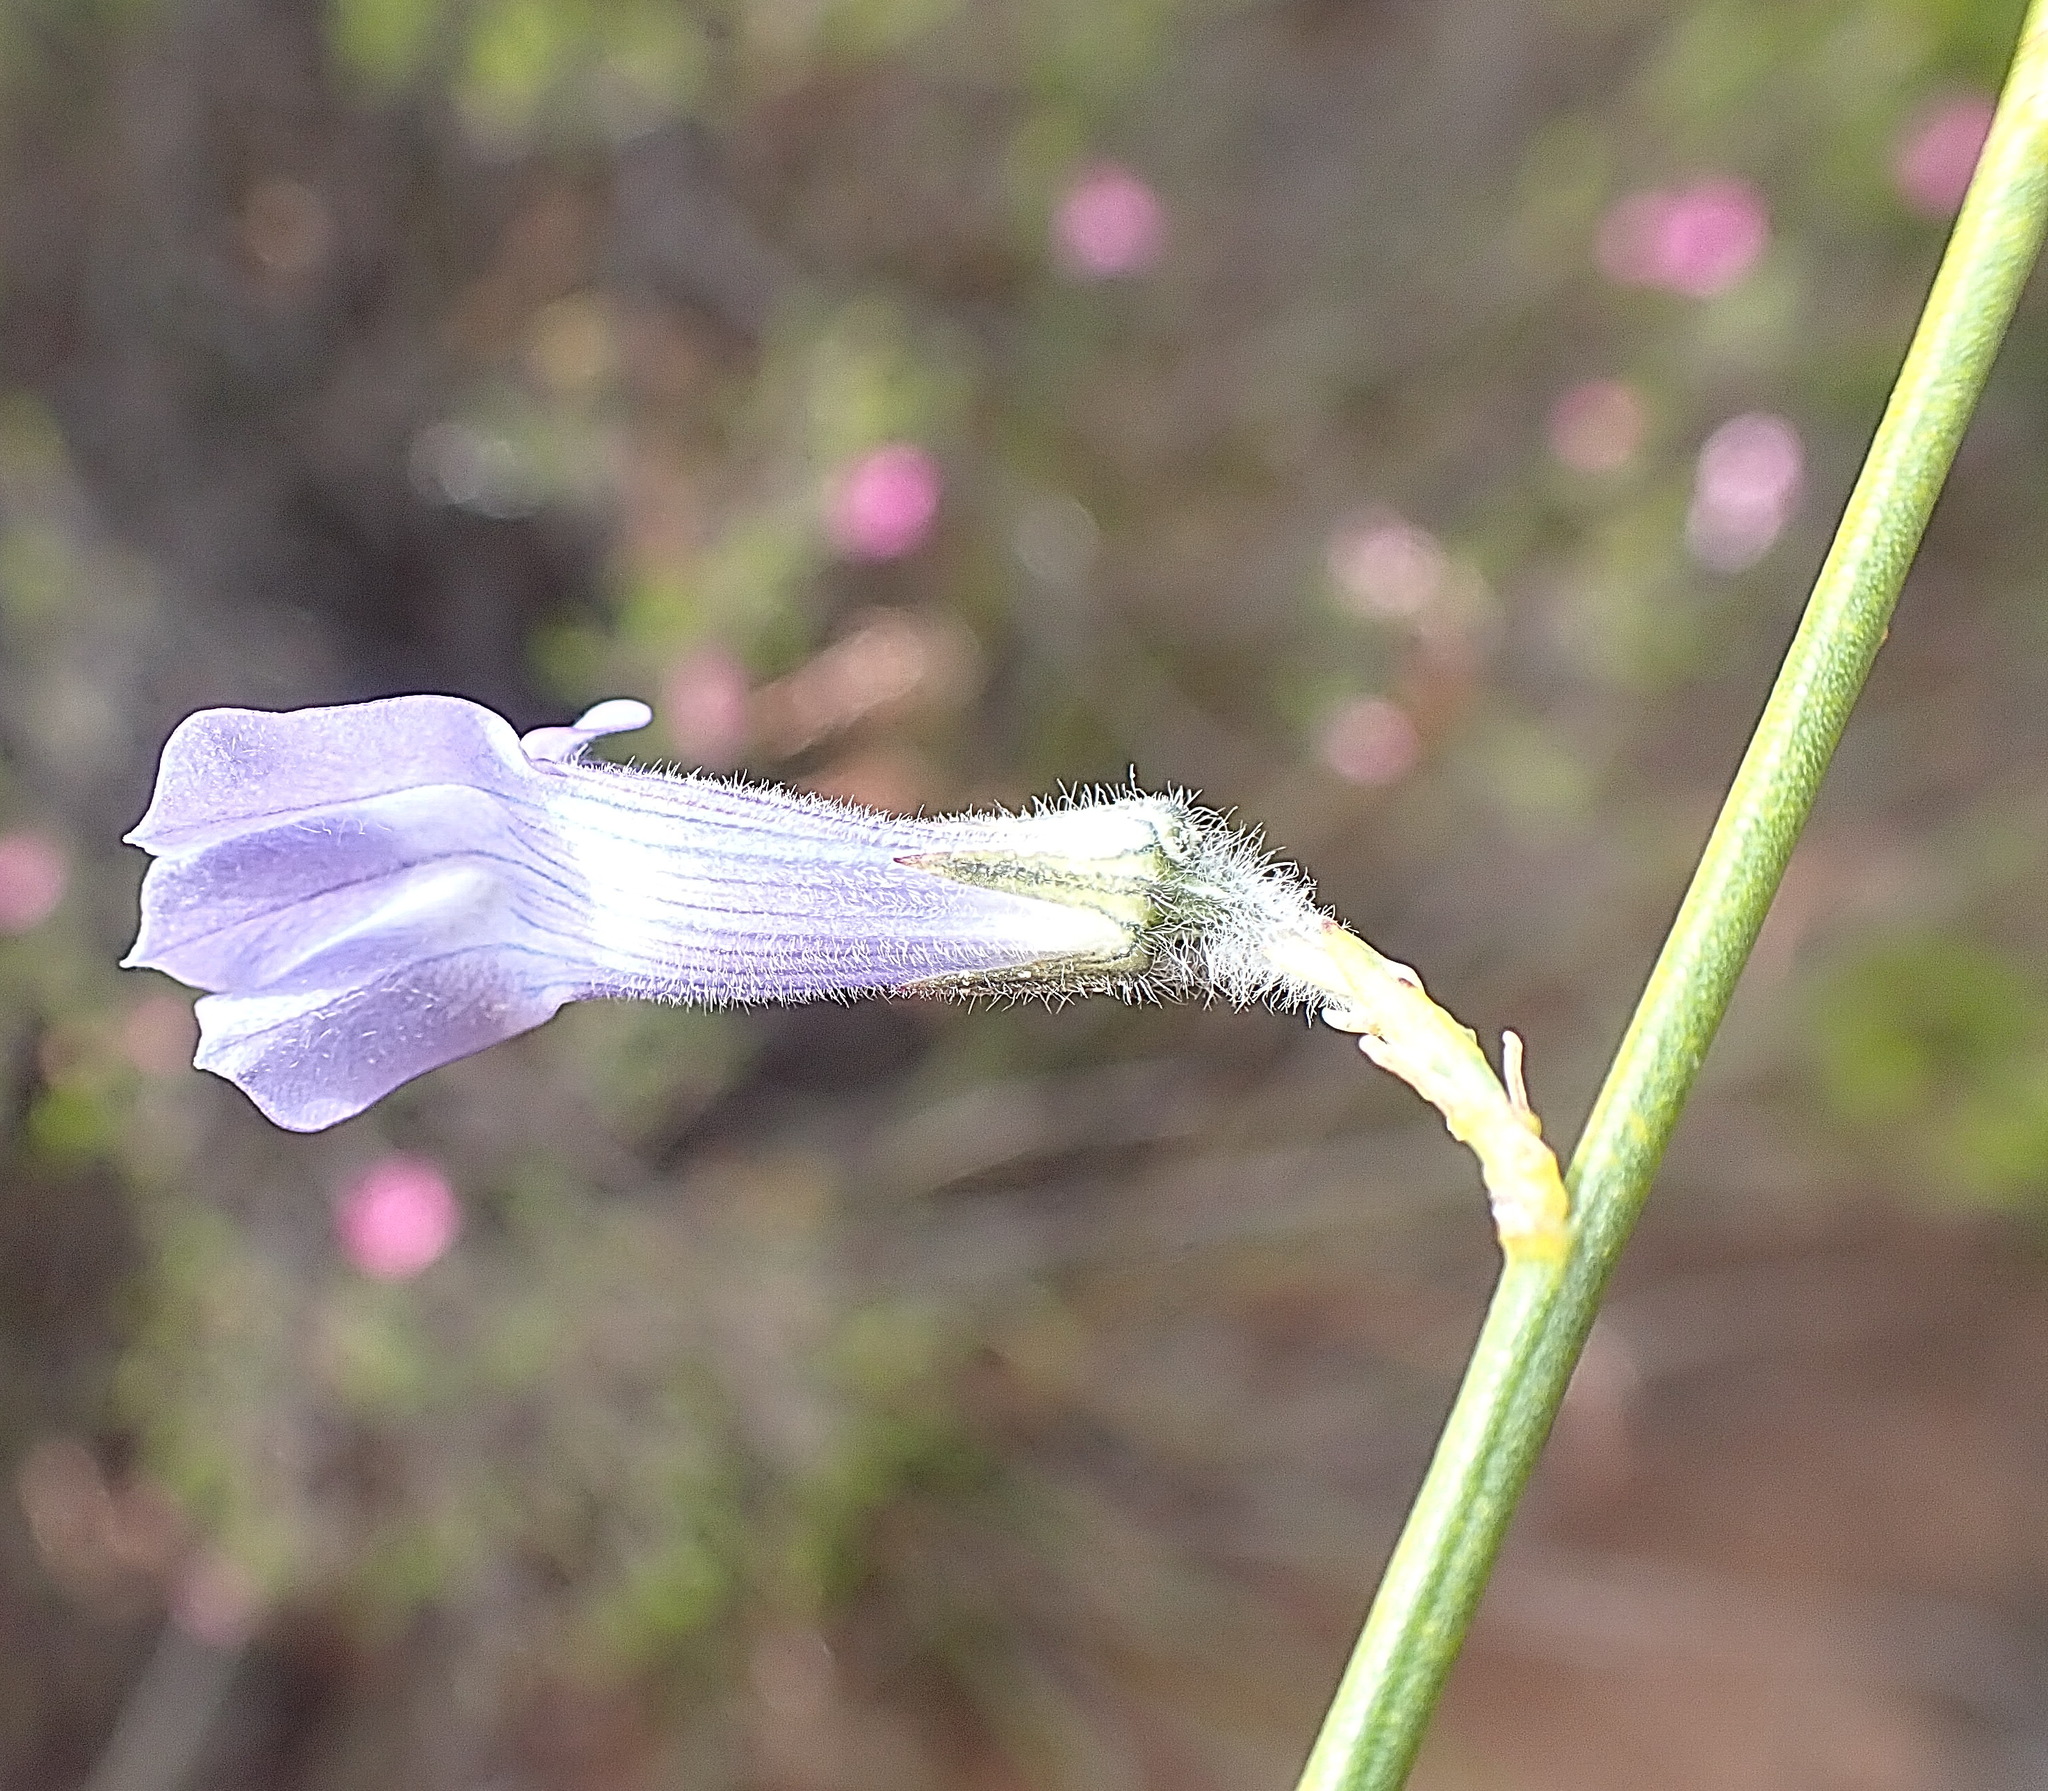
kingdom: Plantae
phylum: Tracheophyta
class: Magnoliopsida
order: Asterales
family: Campanulaceae
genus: Lobelia
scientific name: Lobelia linearis
